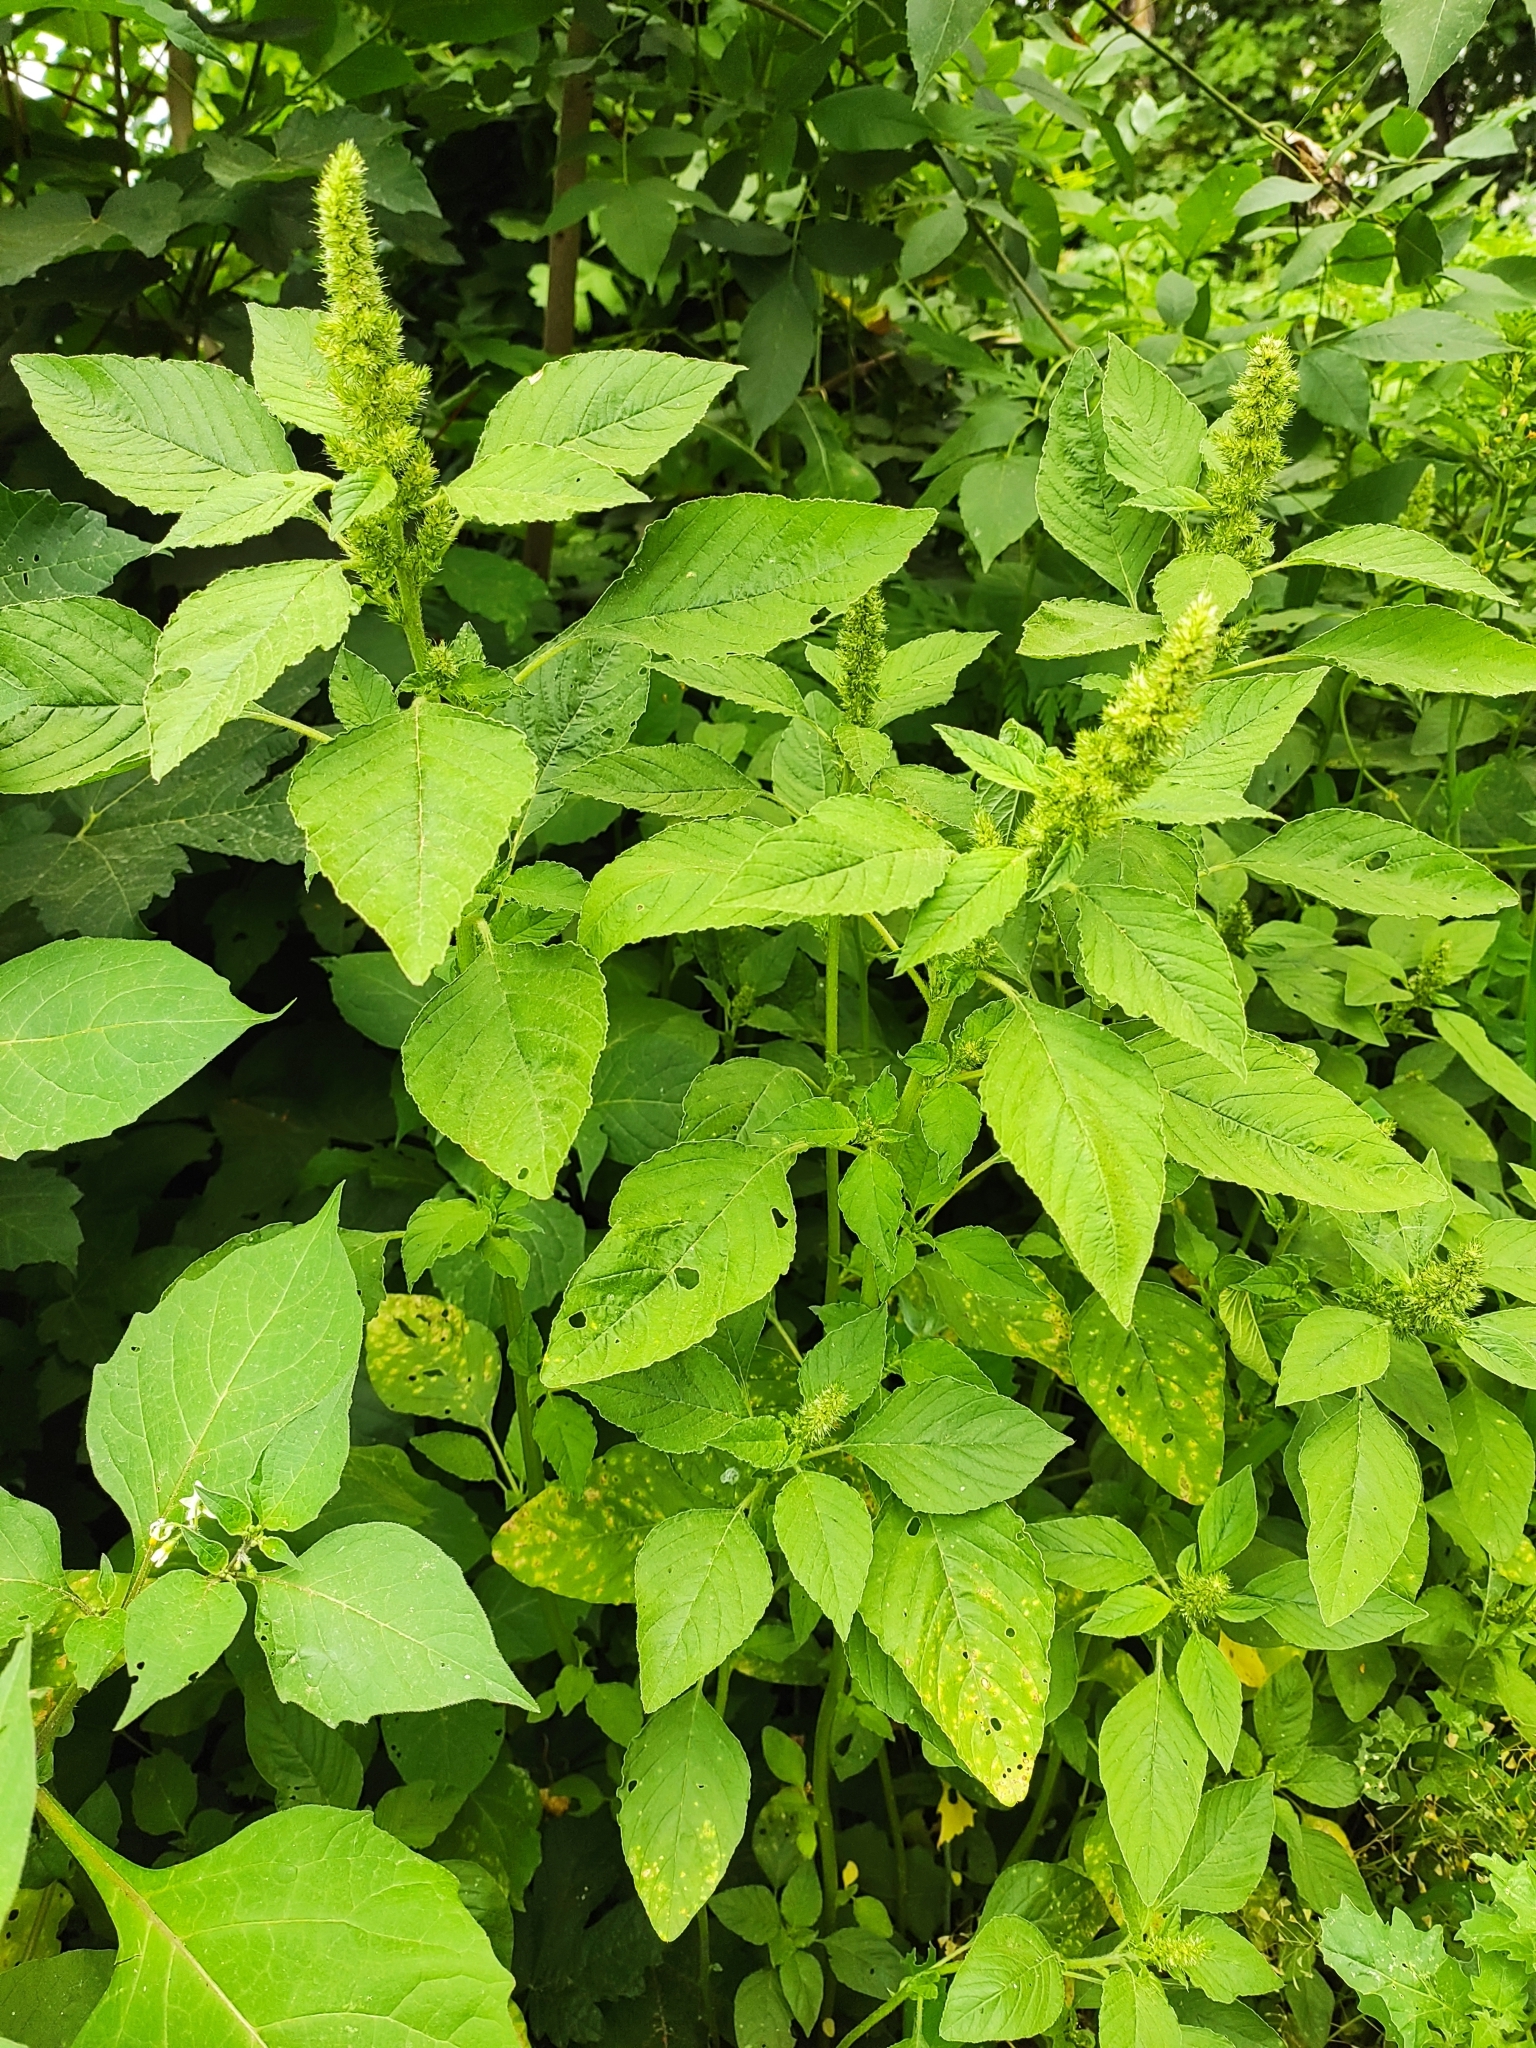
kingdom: Plantae
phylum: Tracheophyta
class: Magnoliopsida
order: Caryophyllales
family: Amaranthaceae
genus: Amaranthus
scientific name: Amaranthus retroflexus
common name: Redroot amaranth
